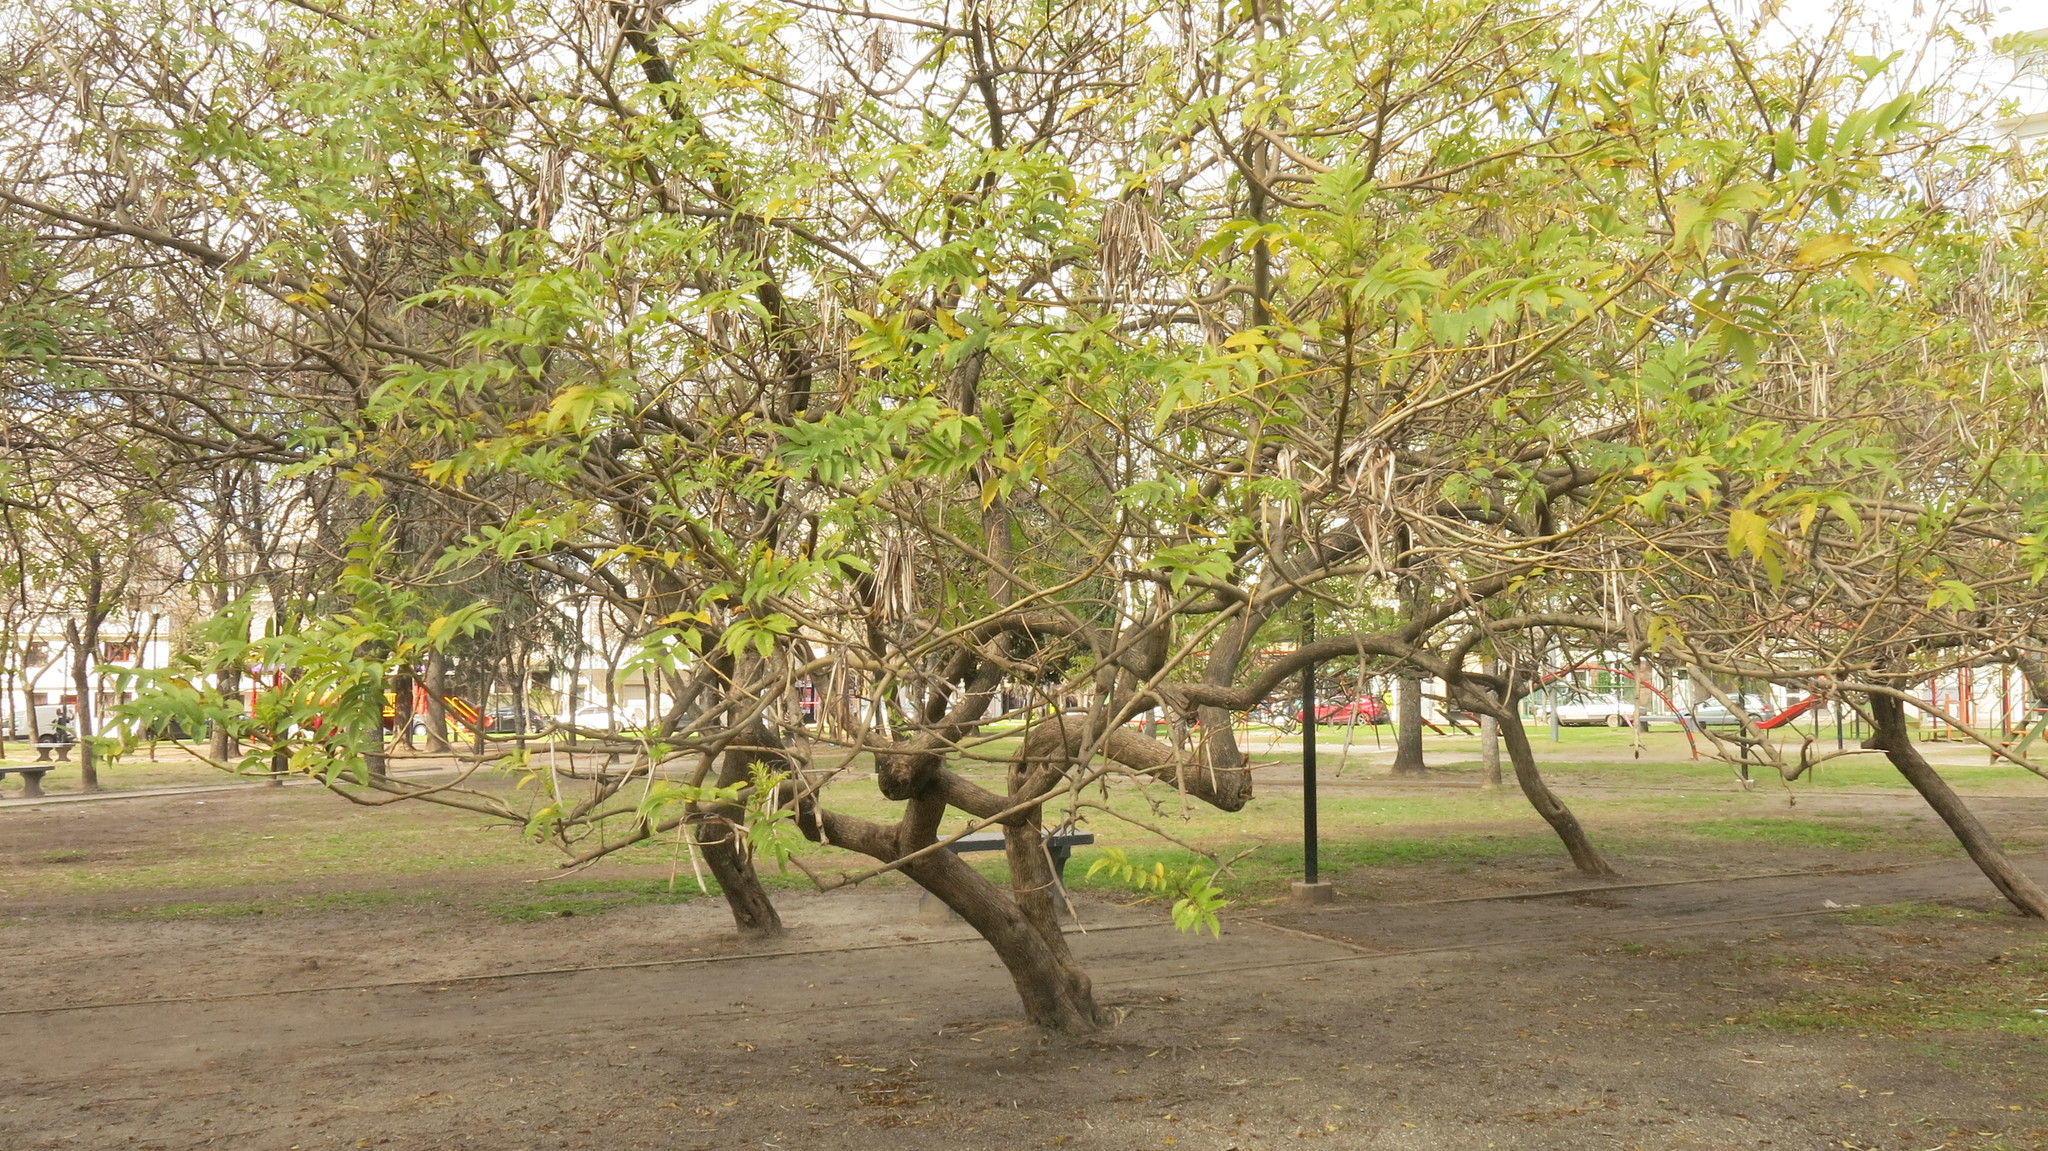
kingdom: Plantae
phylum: Tracheophyta
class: Magnoliopsida
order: Lamiales
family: Bignoniaceae
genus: Tecoma
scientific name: Tecoma stans
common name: Yellow trumpetbush
